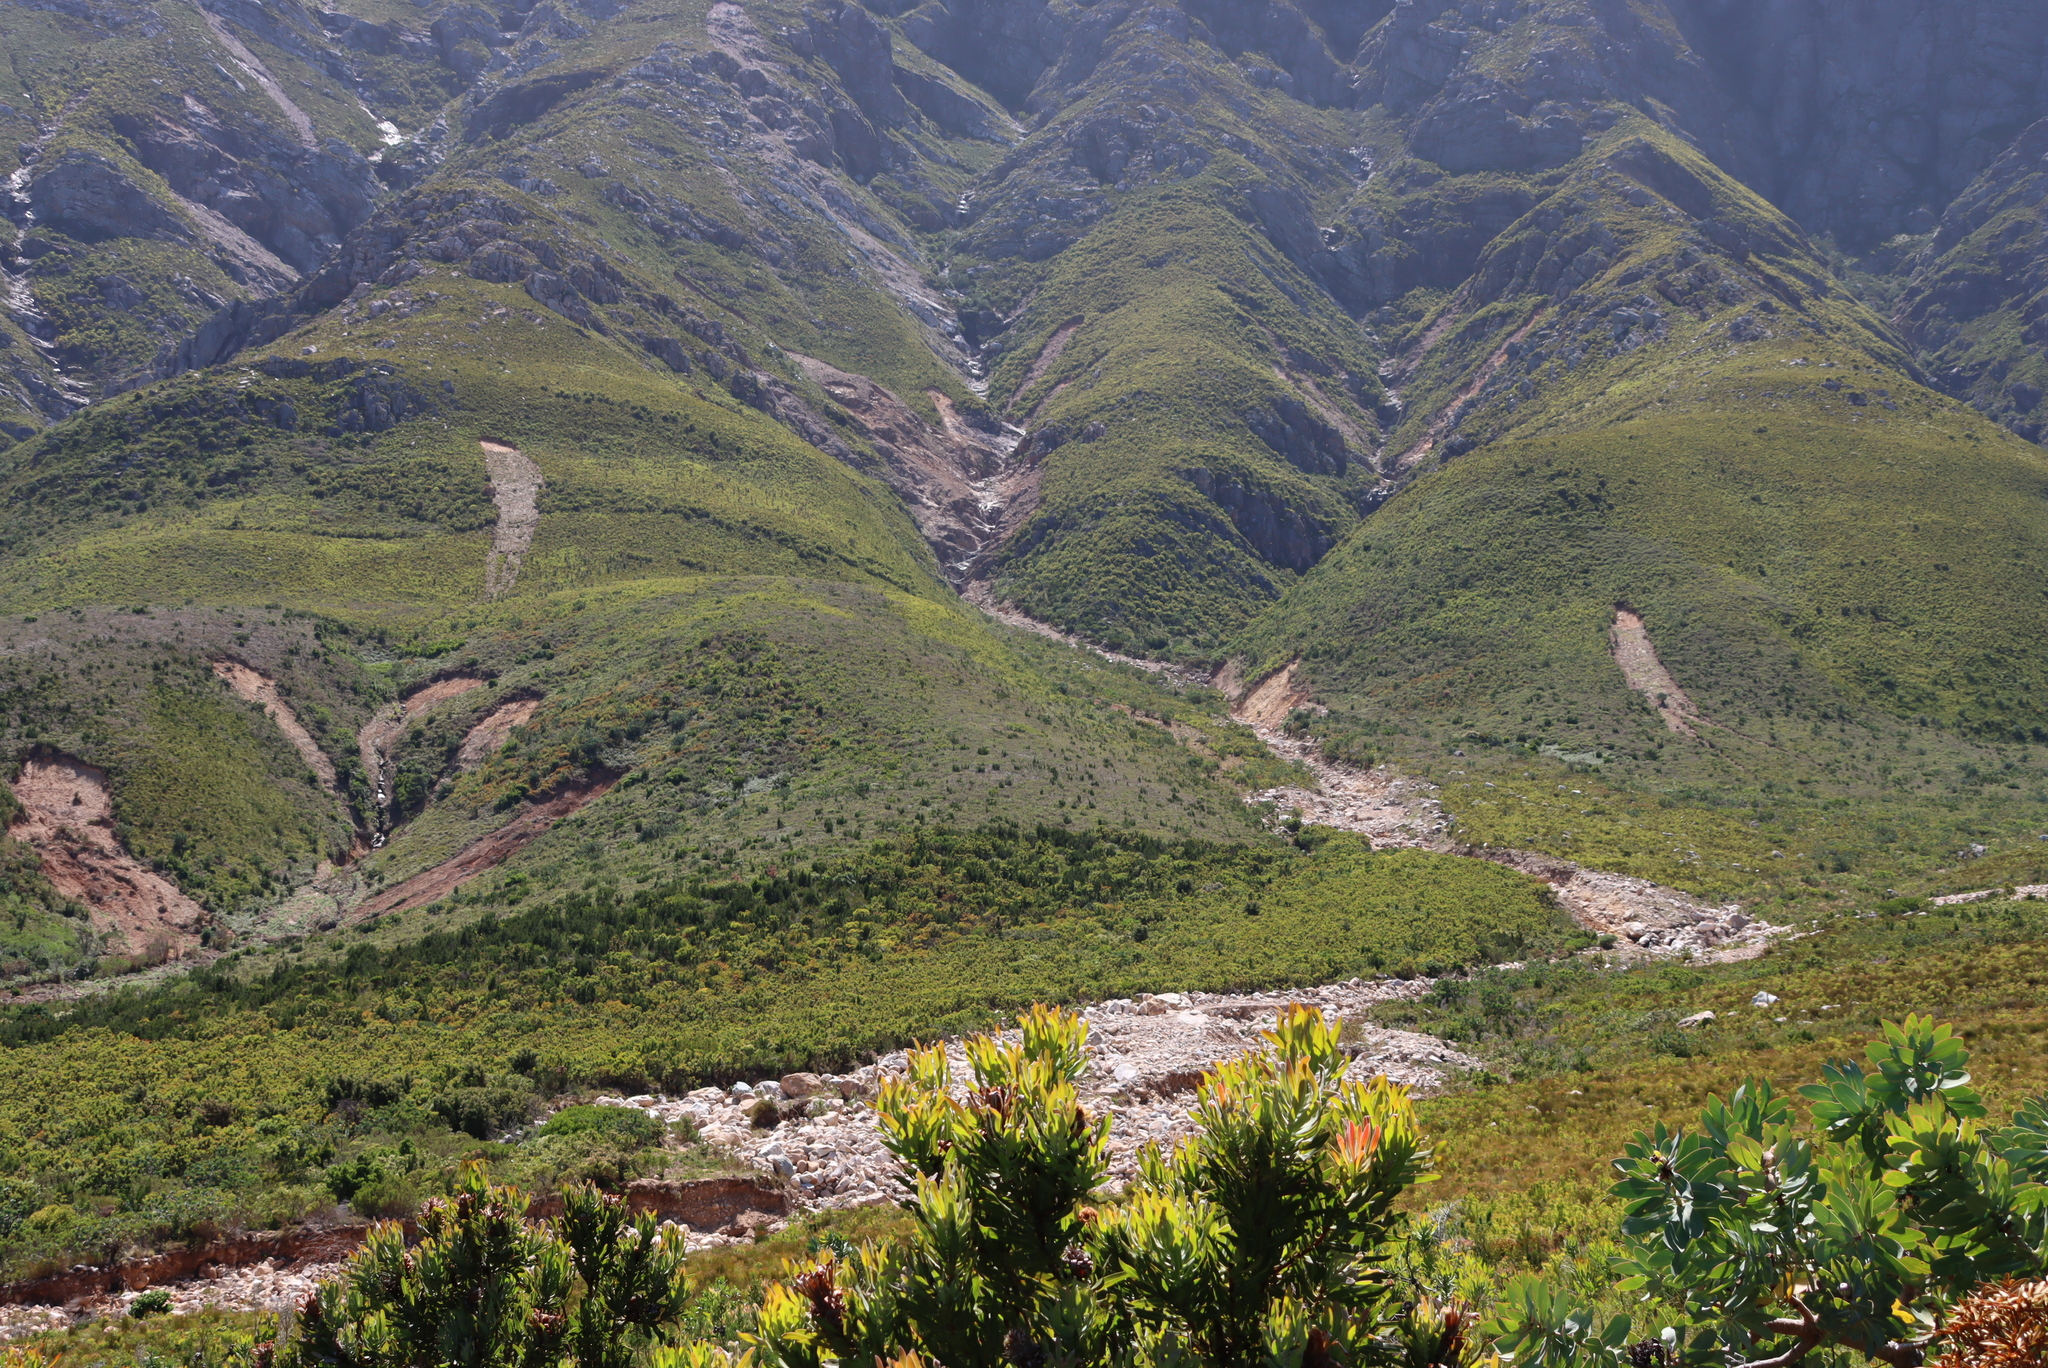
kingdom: Plantae
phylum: Tracheophyta
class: Magnoliopsida
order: Proteales
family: Proteaceae
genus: Hakea
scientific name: Hakea sericea
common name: Needle bush
